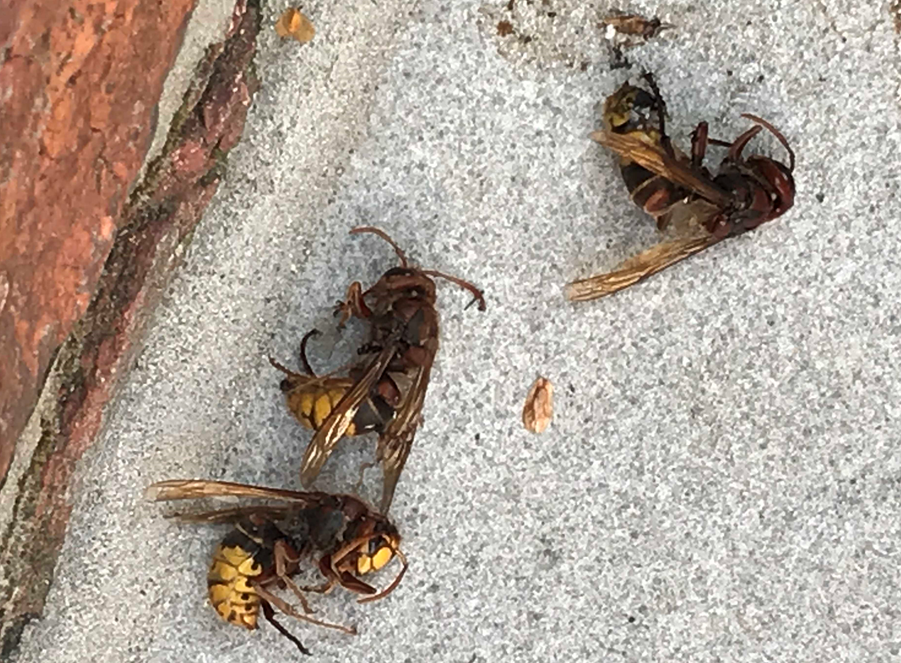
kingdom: Animalia
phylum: Arthropoda
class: Insecta
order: Hymenoptera
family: Vespidae
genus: Vespa
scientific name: Vespa crabro
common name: Hornet
